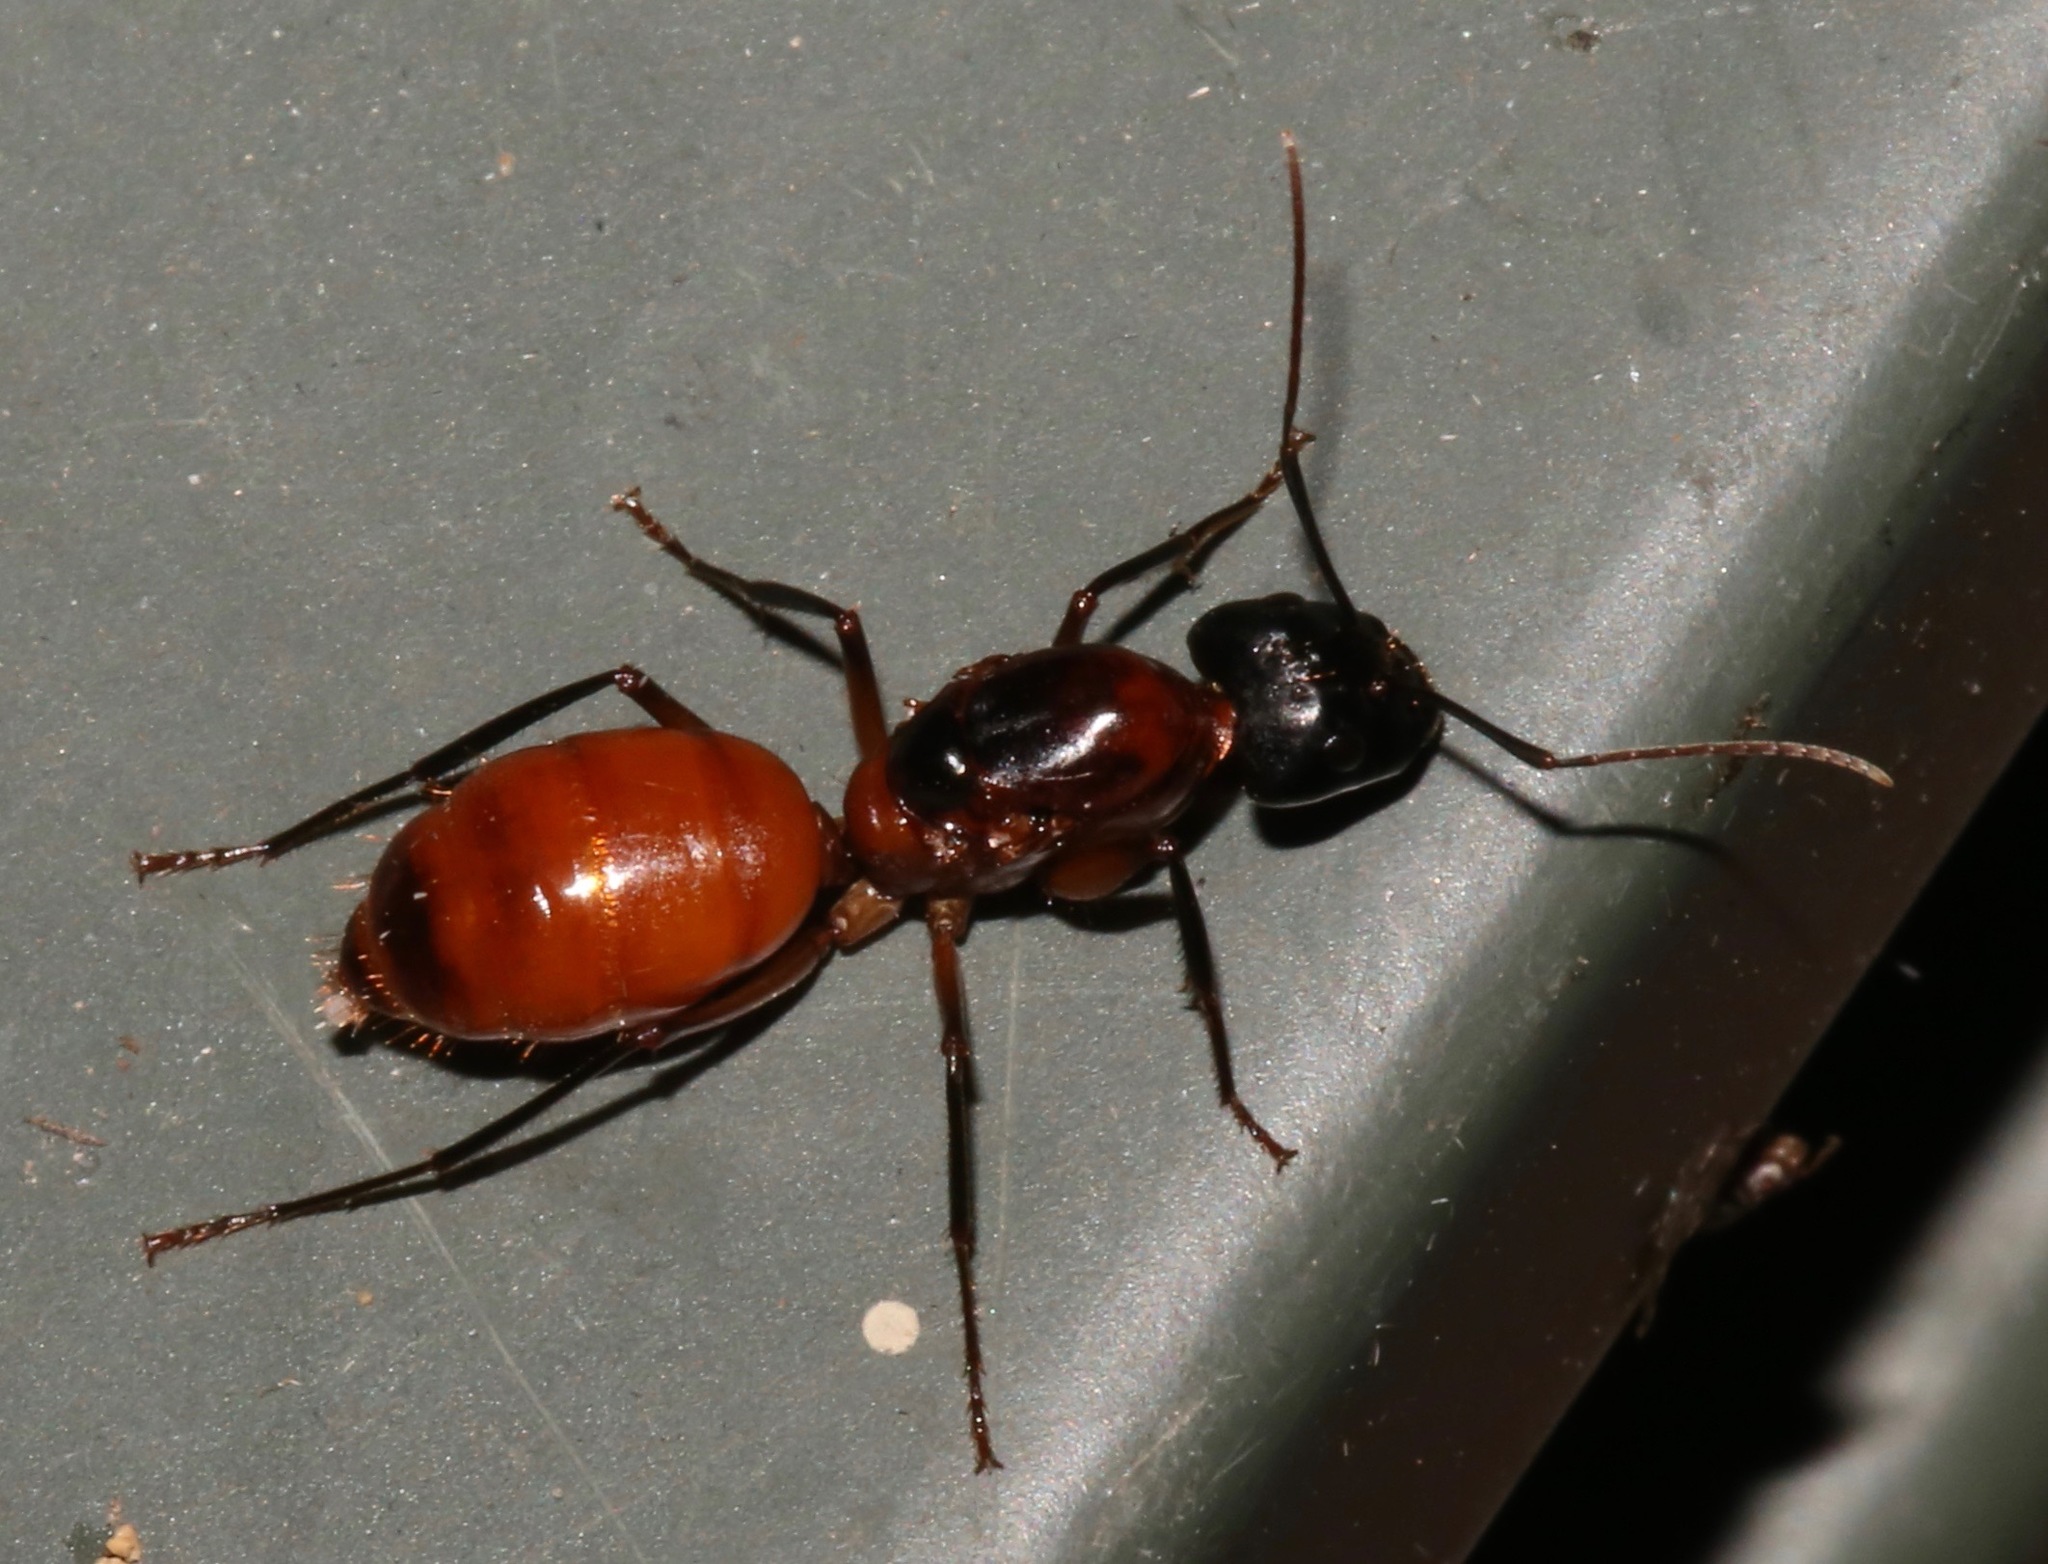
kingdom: Animalia
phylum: Arthropoda
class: Insecta
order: Hymenoptera
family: Formicidae
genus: Camponotus
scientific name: Camponotus ocreatus
